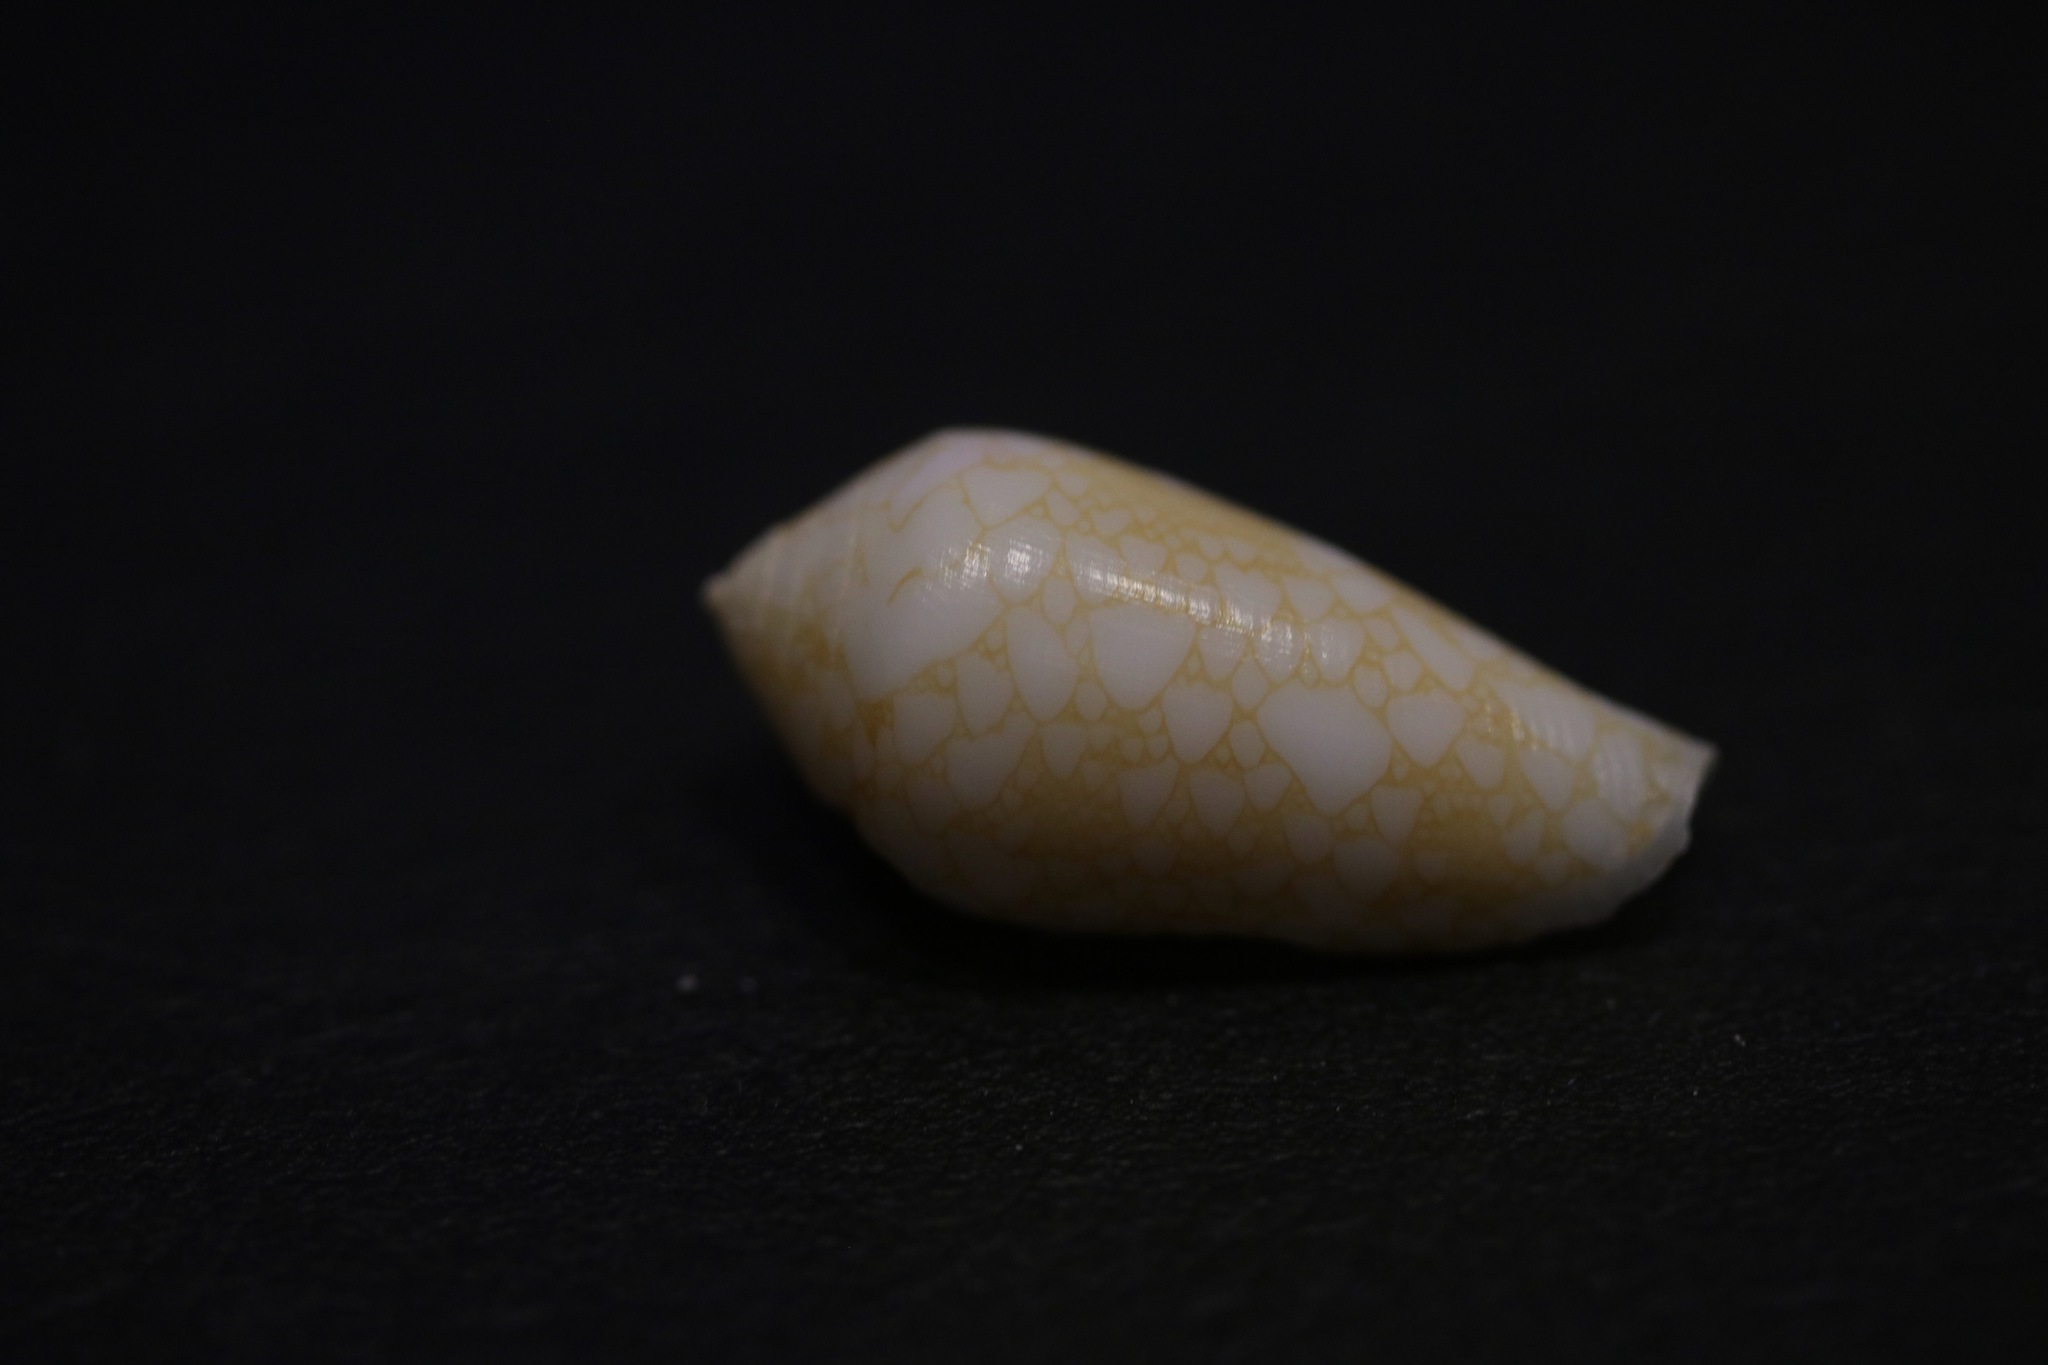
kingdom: Animalia
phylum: Mollusca
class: Gastropoda
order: Neogastropoda
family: Conidae
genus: Conus
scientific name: Conus bratcherae
